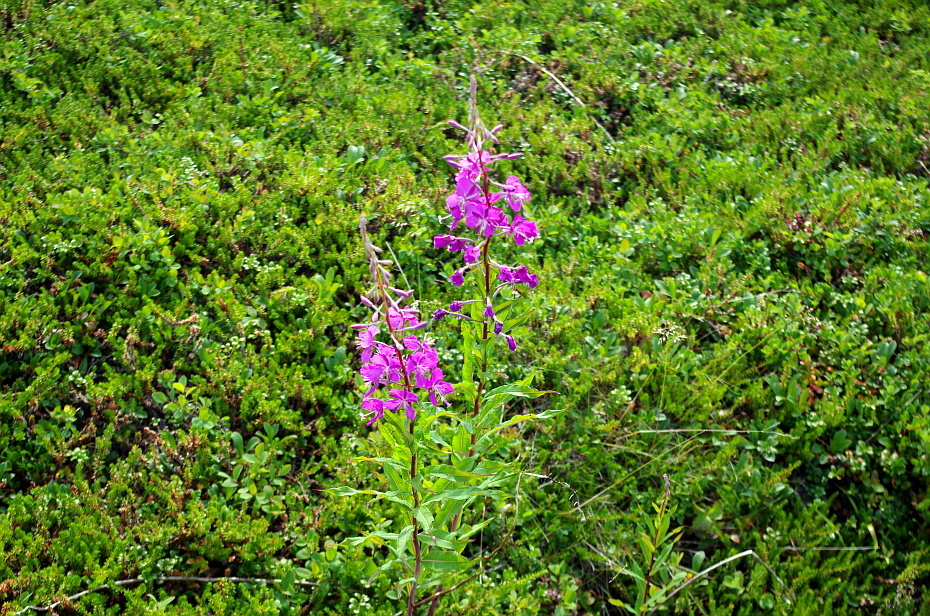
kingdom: Plantae
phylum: Tracheophyta
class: Magnoliopsida
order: Myrtales
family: Onagraceae
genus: Chamaenerion
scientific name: Chamaenerion angustifolium
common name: Fireweed
